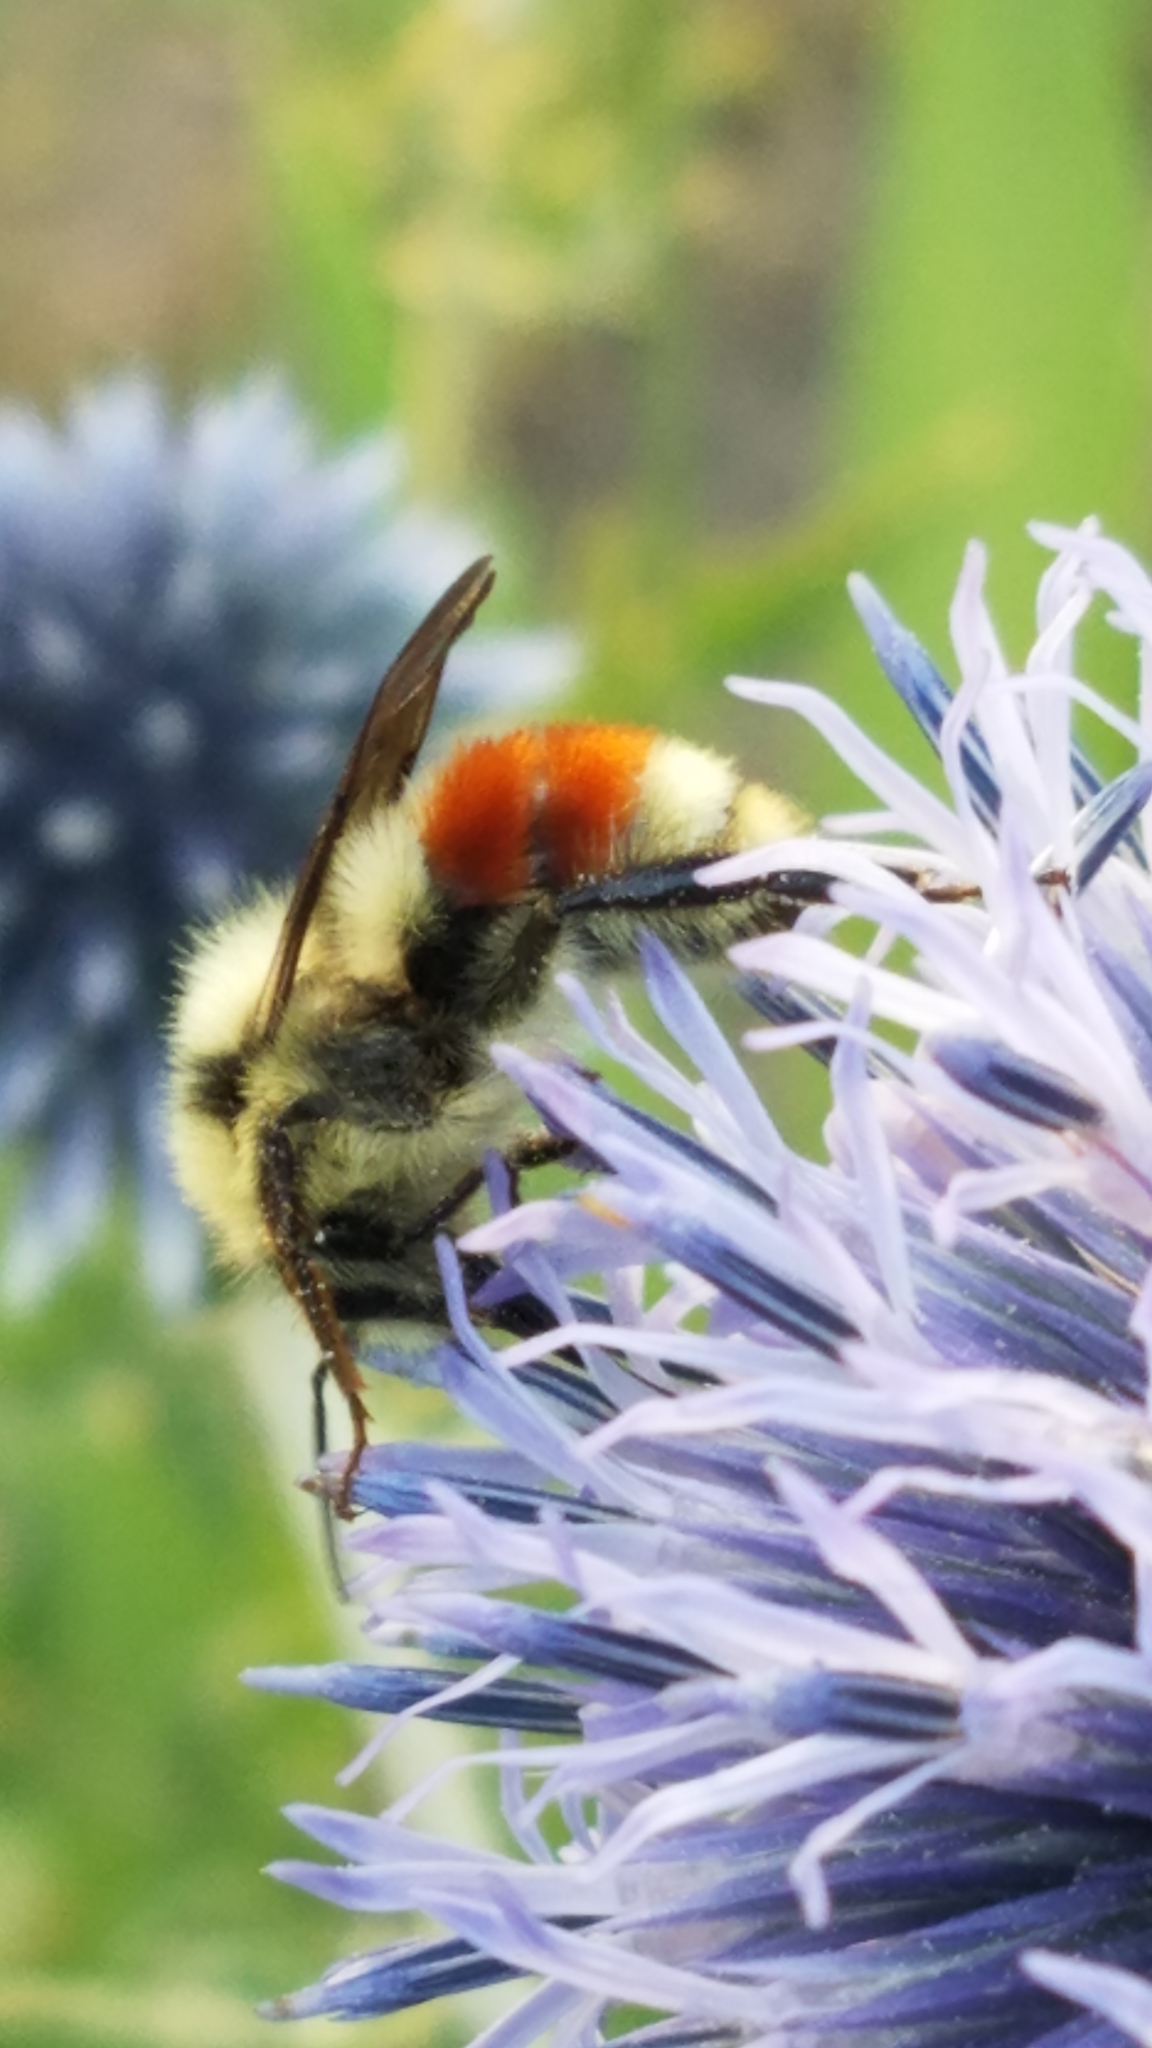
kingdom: Animalia
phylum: Arthropoda
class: Insecta
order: Hymenoptera
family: Apidae
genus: Bombus
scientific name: Bombus huntii
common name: Hunt bumble bee
